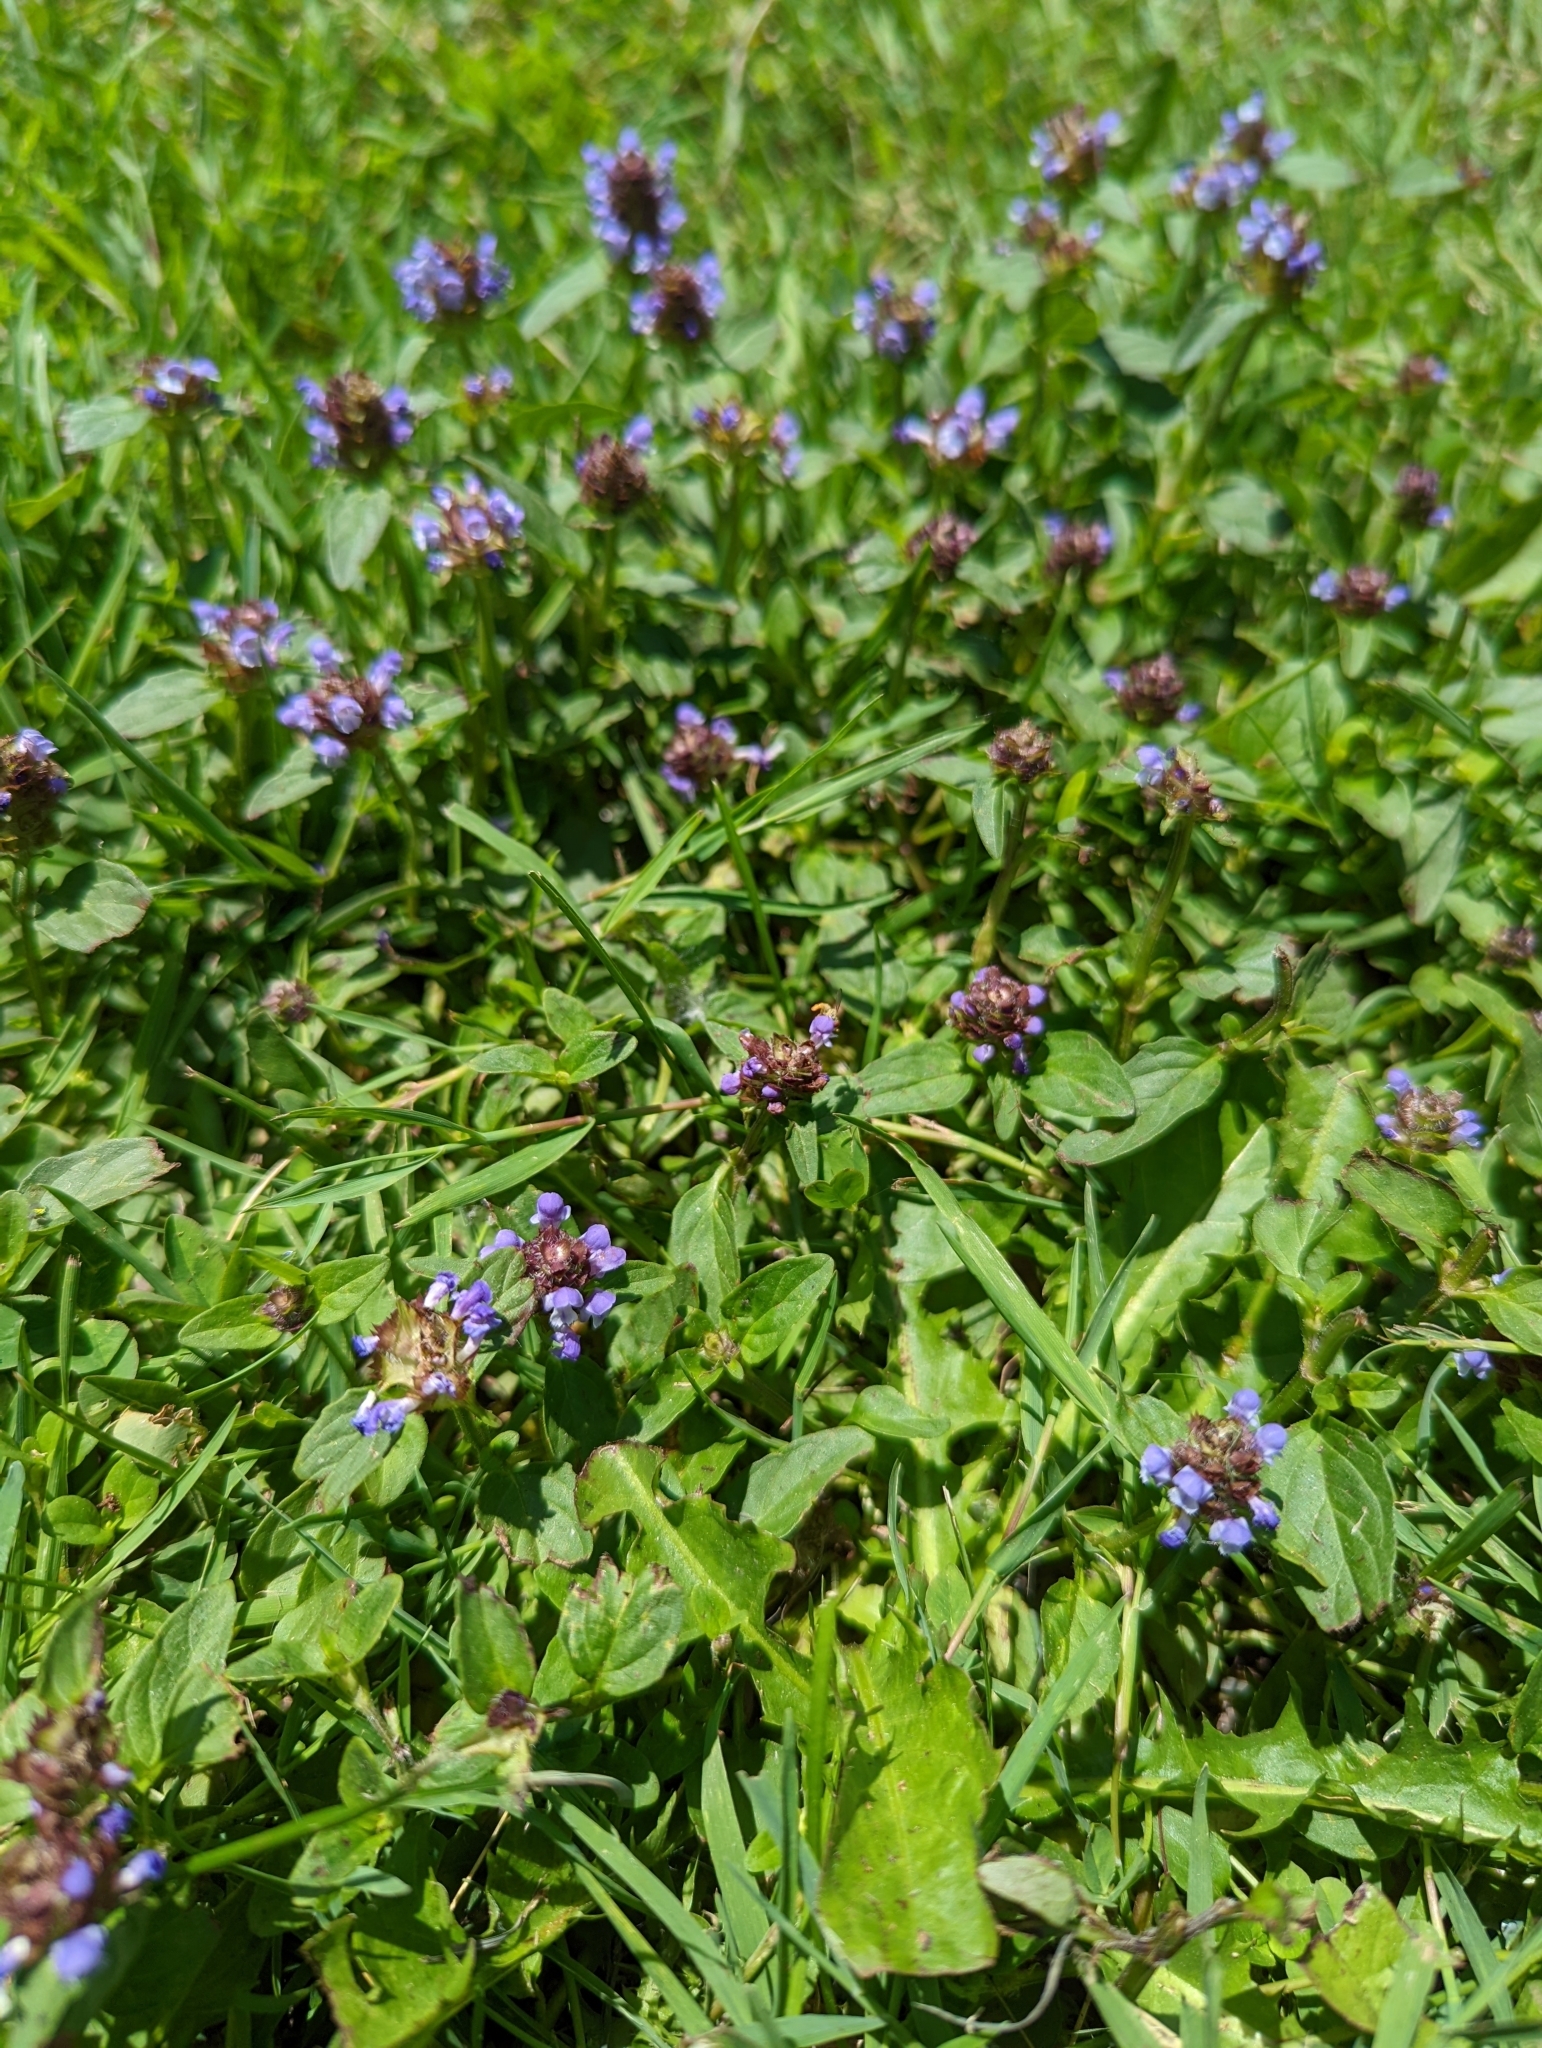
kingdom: Plantae
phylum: Tracheophyta
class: Magnoliopsida
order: Lamiales
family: Lamiaceae
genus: Prunella
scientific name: Prunella vulgaris
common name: Heal-all
